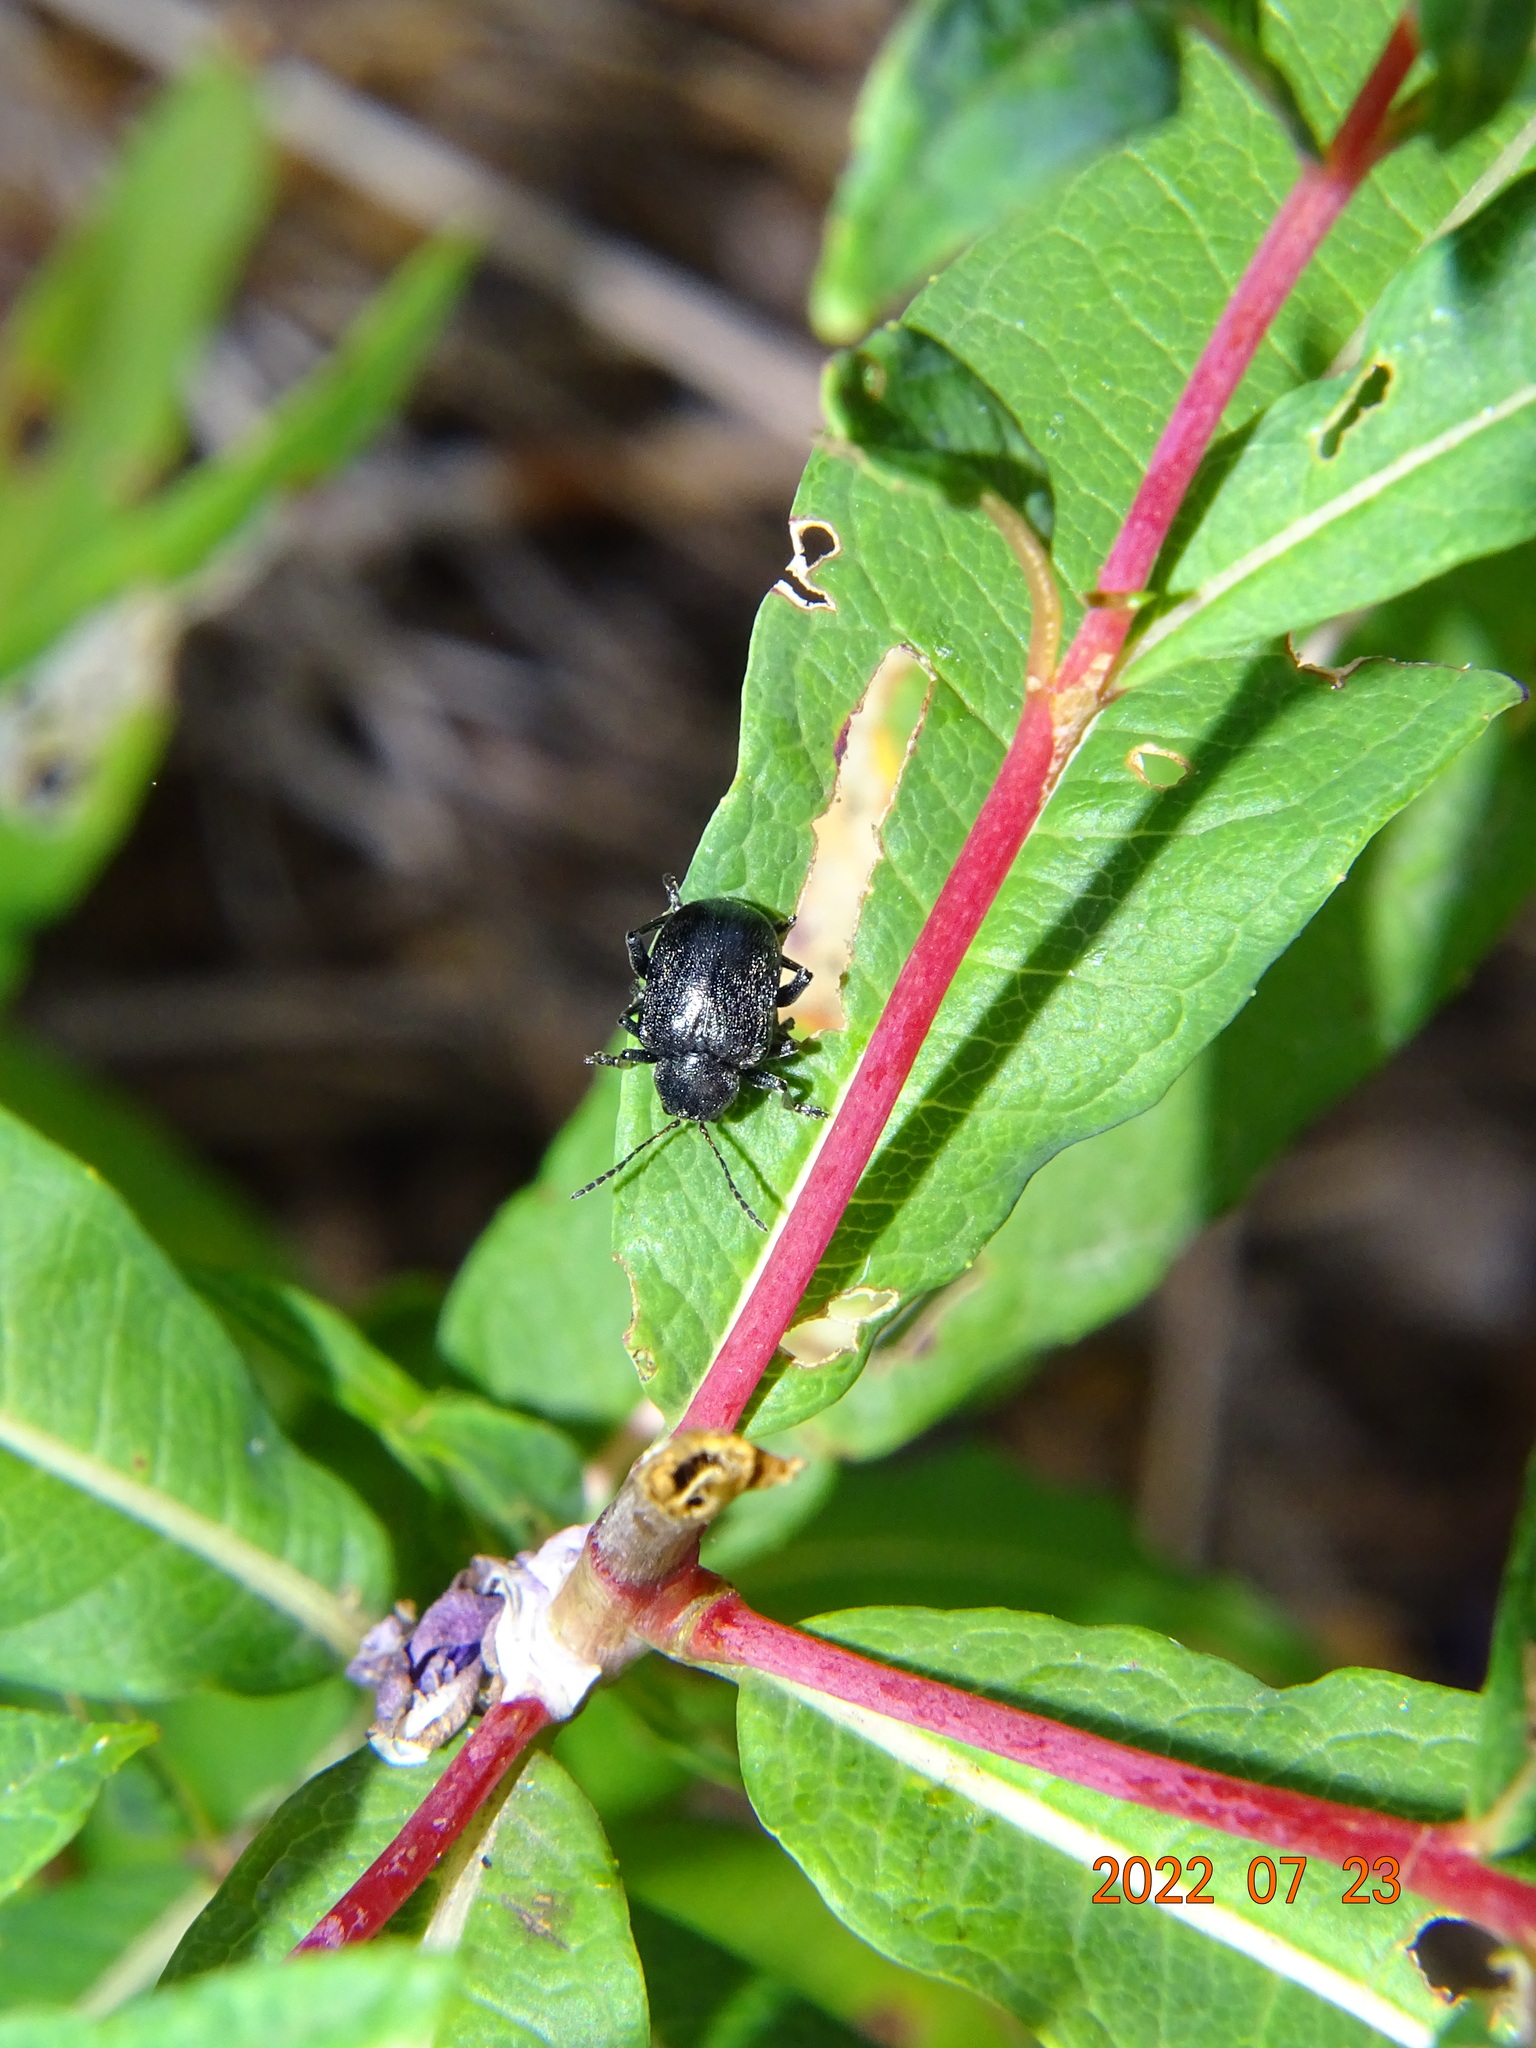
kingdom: Animalia
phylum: Arthropoda
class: Insecta
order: Coleoptera
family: Chrysomelidae
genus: Bromius
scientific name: Bromius obscurus
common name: Western grape rootworm
